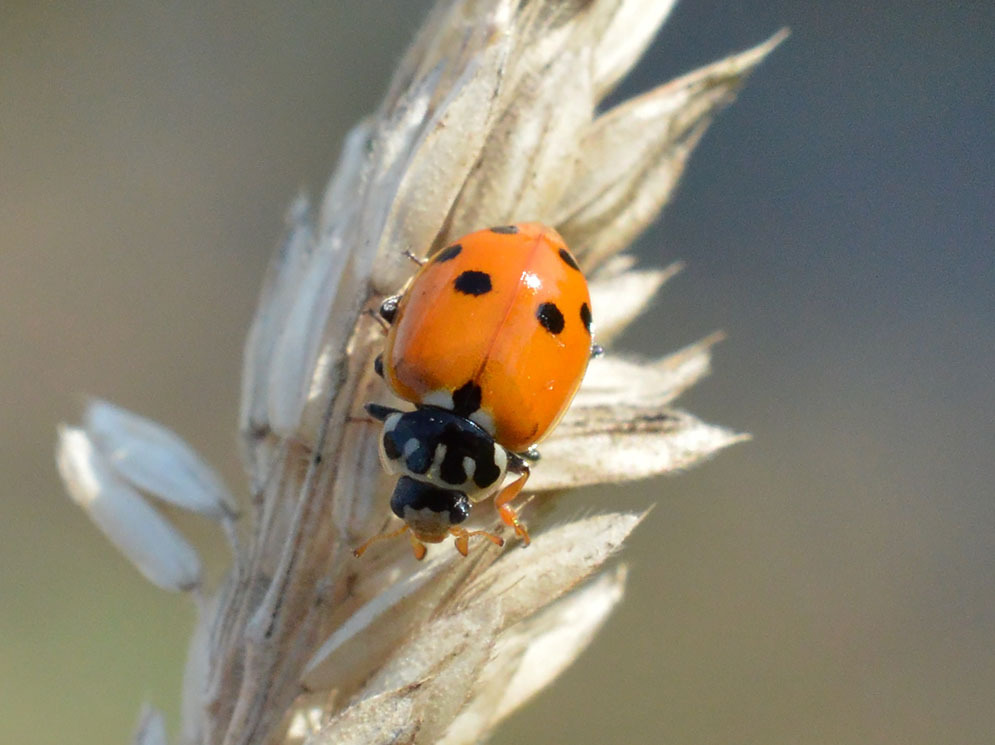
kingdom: Animalia
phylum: Arthropoda
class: Insecta
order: Coleoptera
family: Coccinellidae
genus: Hippodamia
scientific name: Hippodamia variegata
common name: Ladybird beetle
